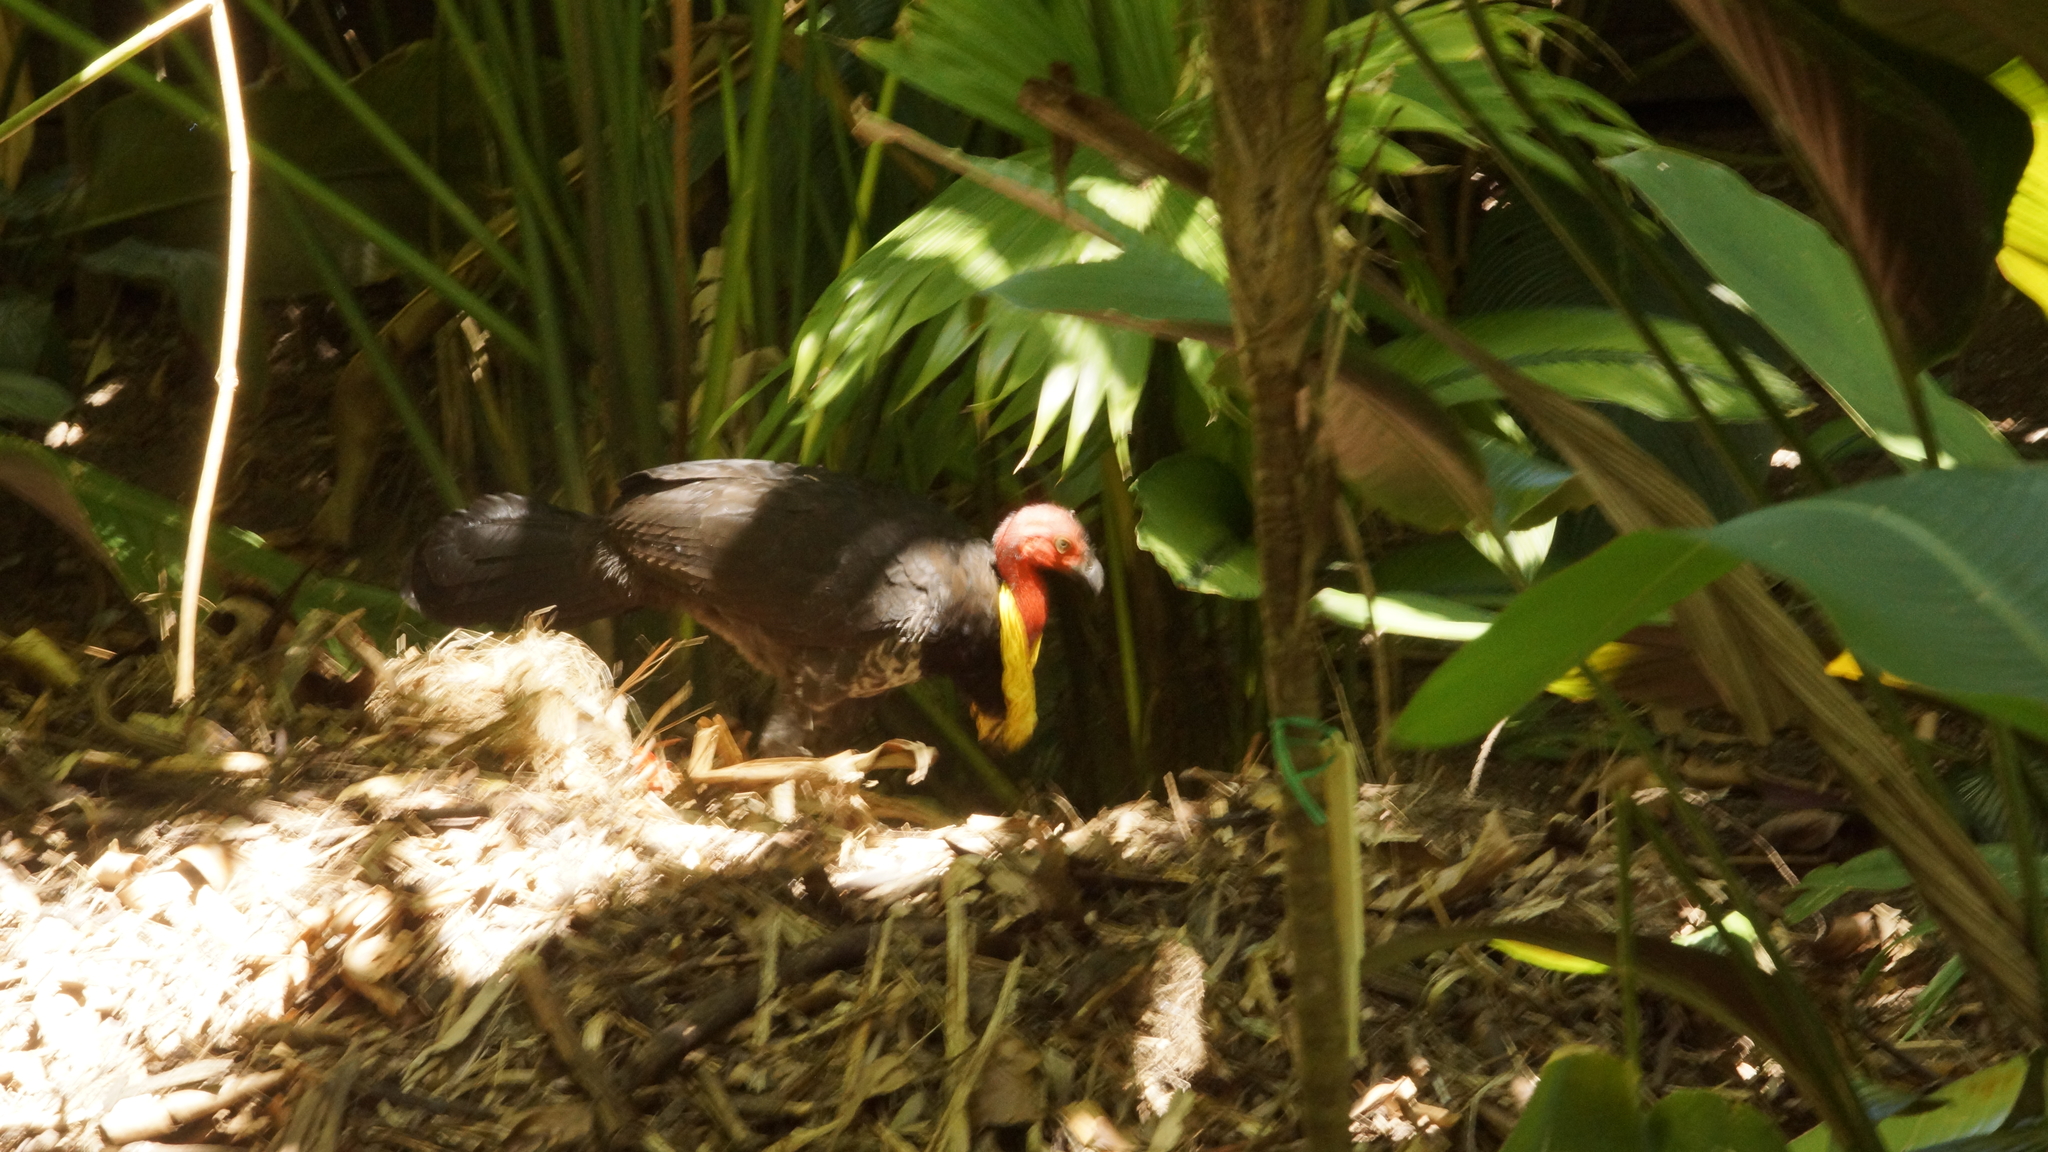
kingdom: Animalia
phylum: Chordata
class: Aves
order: Galliformes
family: Megapodiidae
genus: Alectura
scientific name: Alectura lathami
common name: Australian brushturkey
